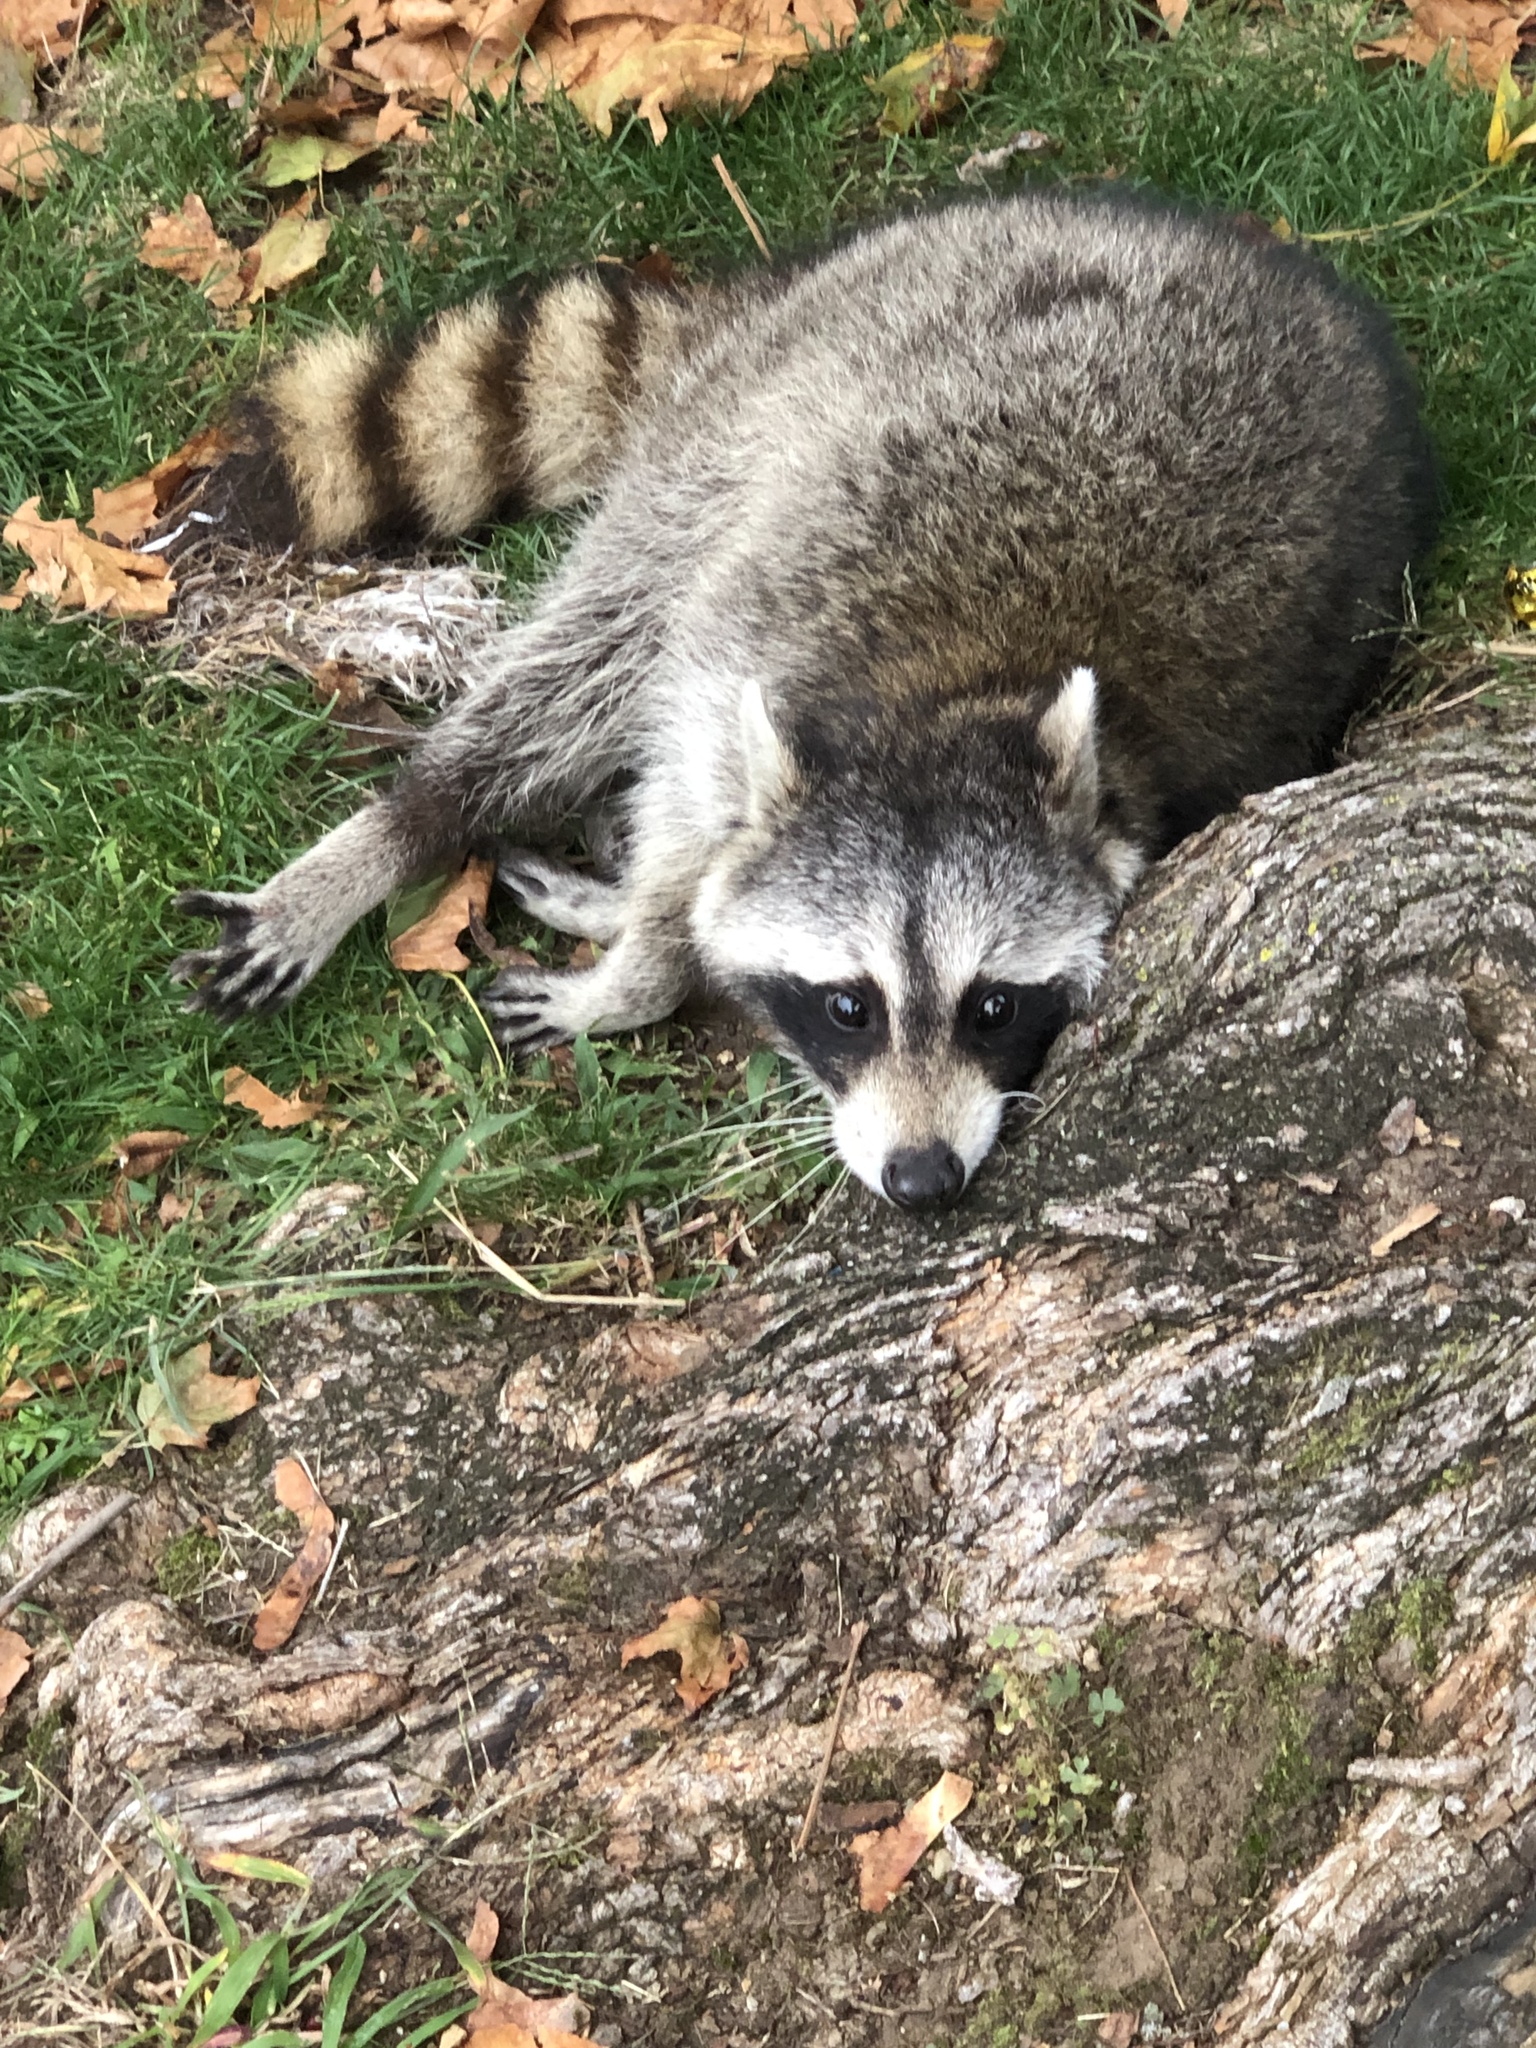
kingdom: Animalia
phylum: Chordata
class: Mammalia
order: Carnivora
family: Procyonidae
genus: Procyon
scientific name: Procyon lotor
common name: Raccoon
